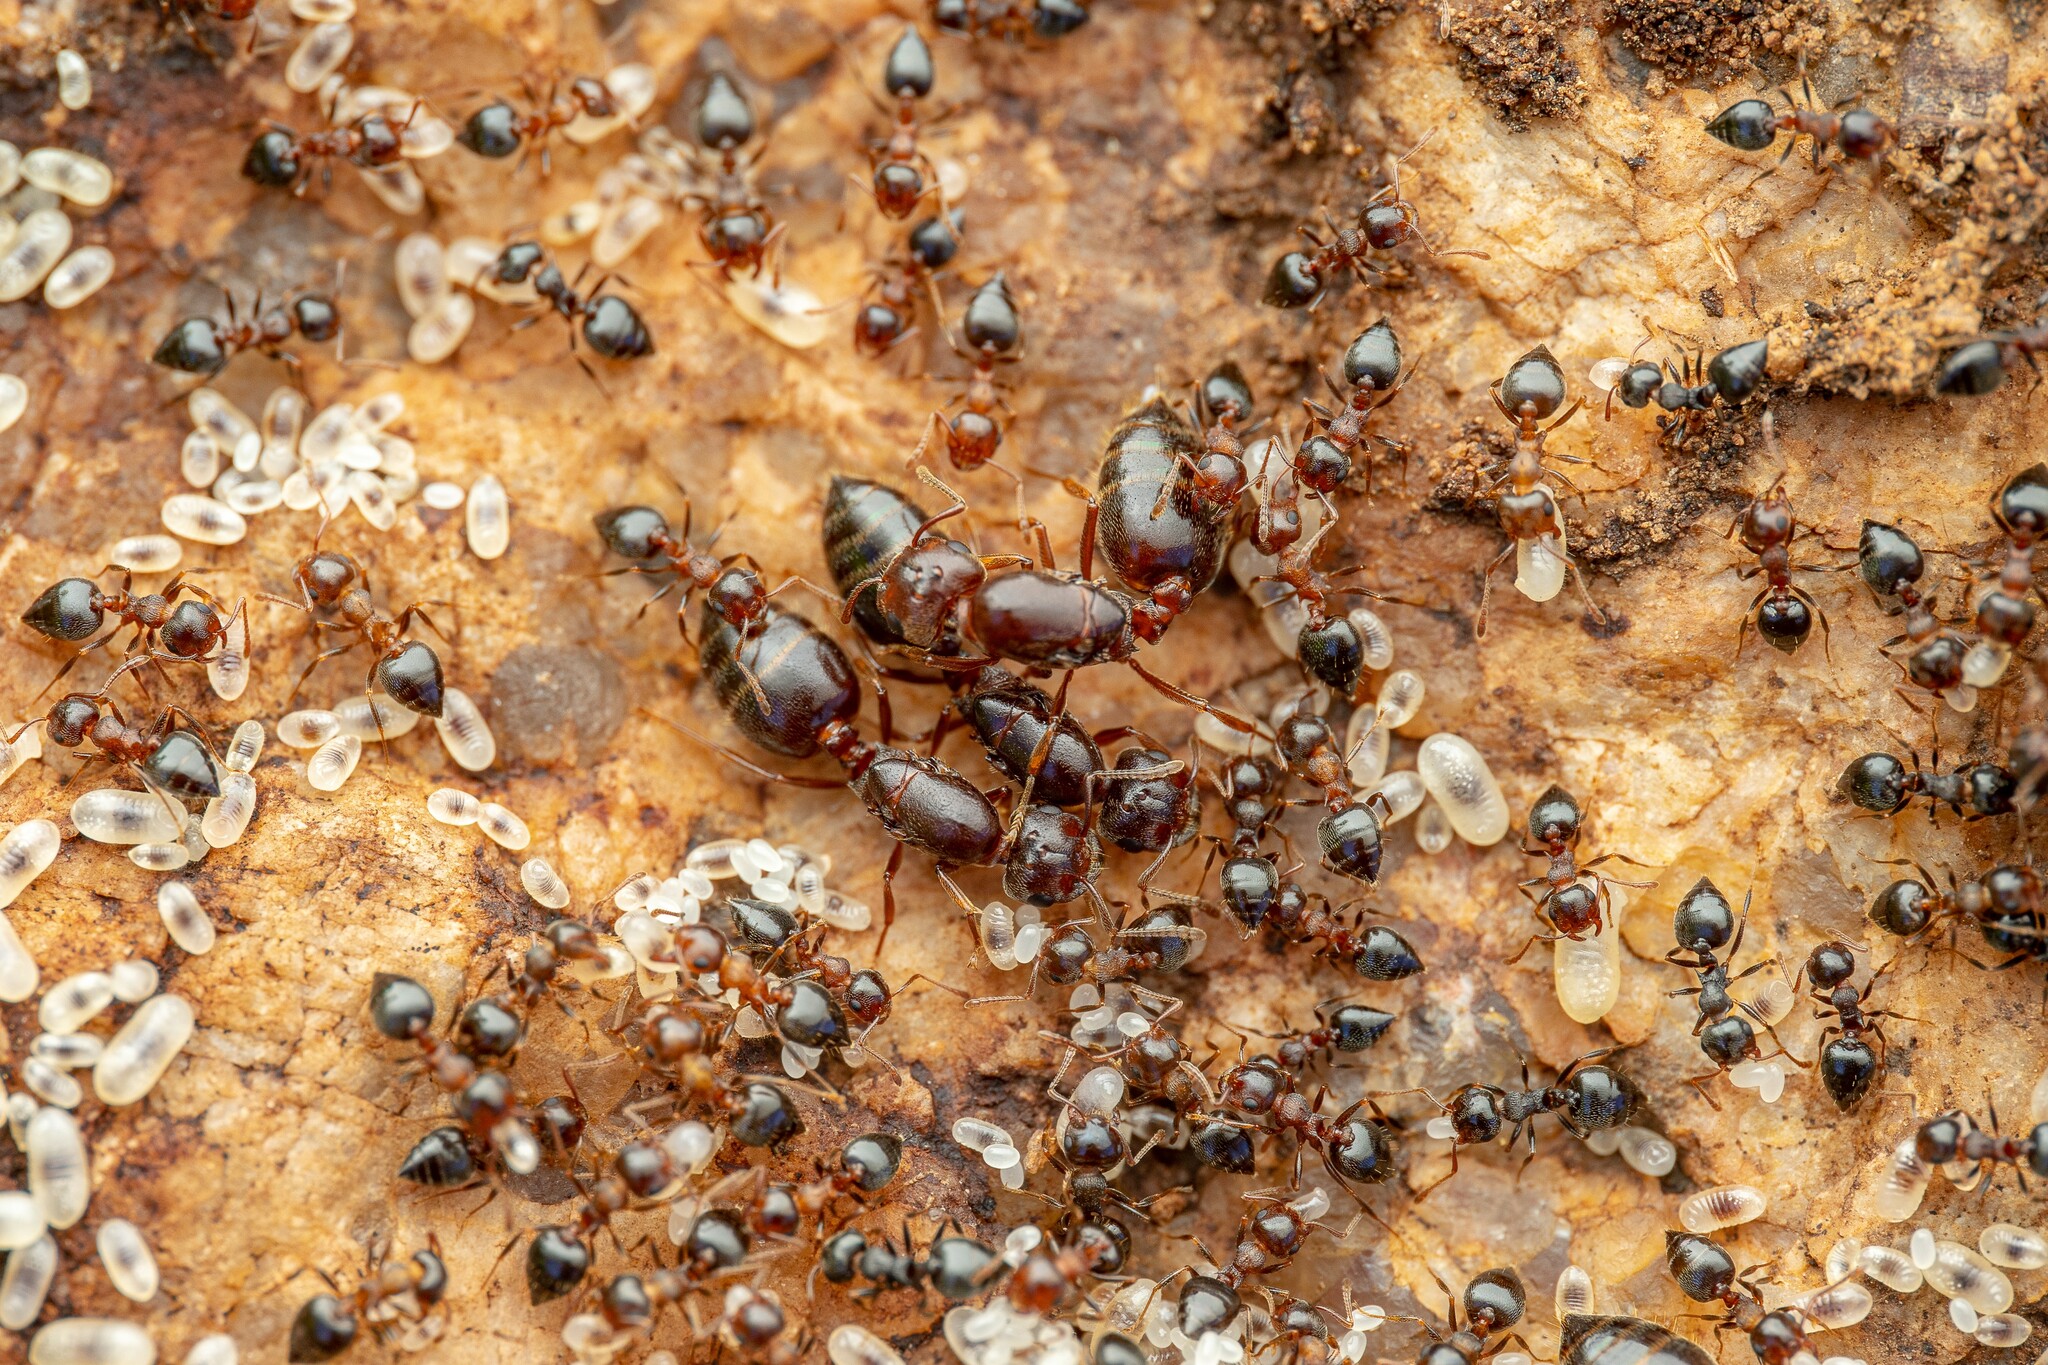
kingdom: Animalia
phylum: Arthropoda
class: Insecta
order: Hymenoptera
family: Formicidae
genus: Crematogaster
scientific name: Crematogaster opuntiae
